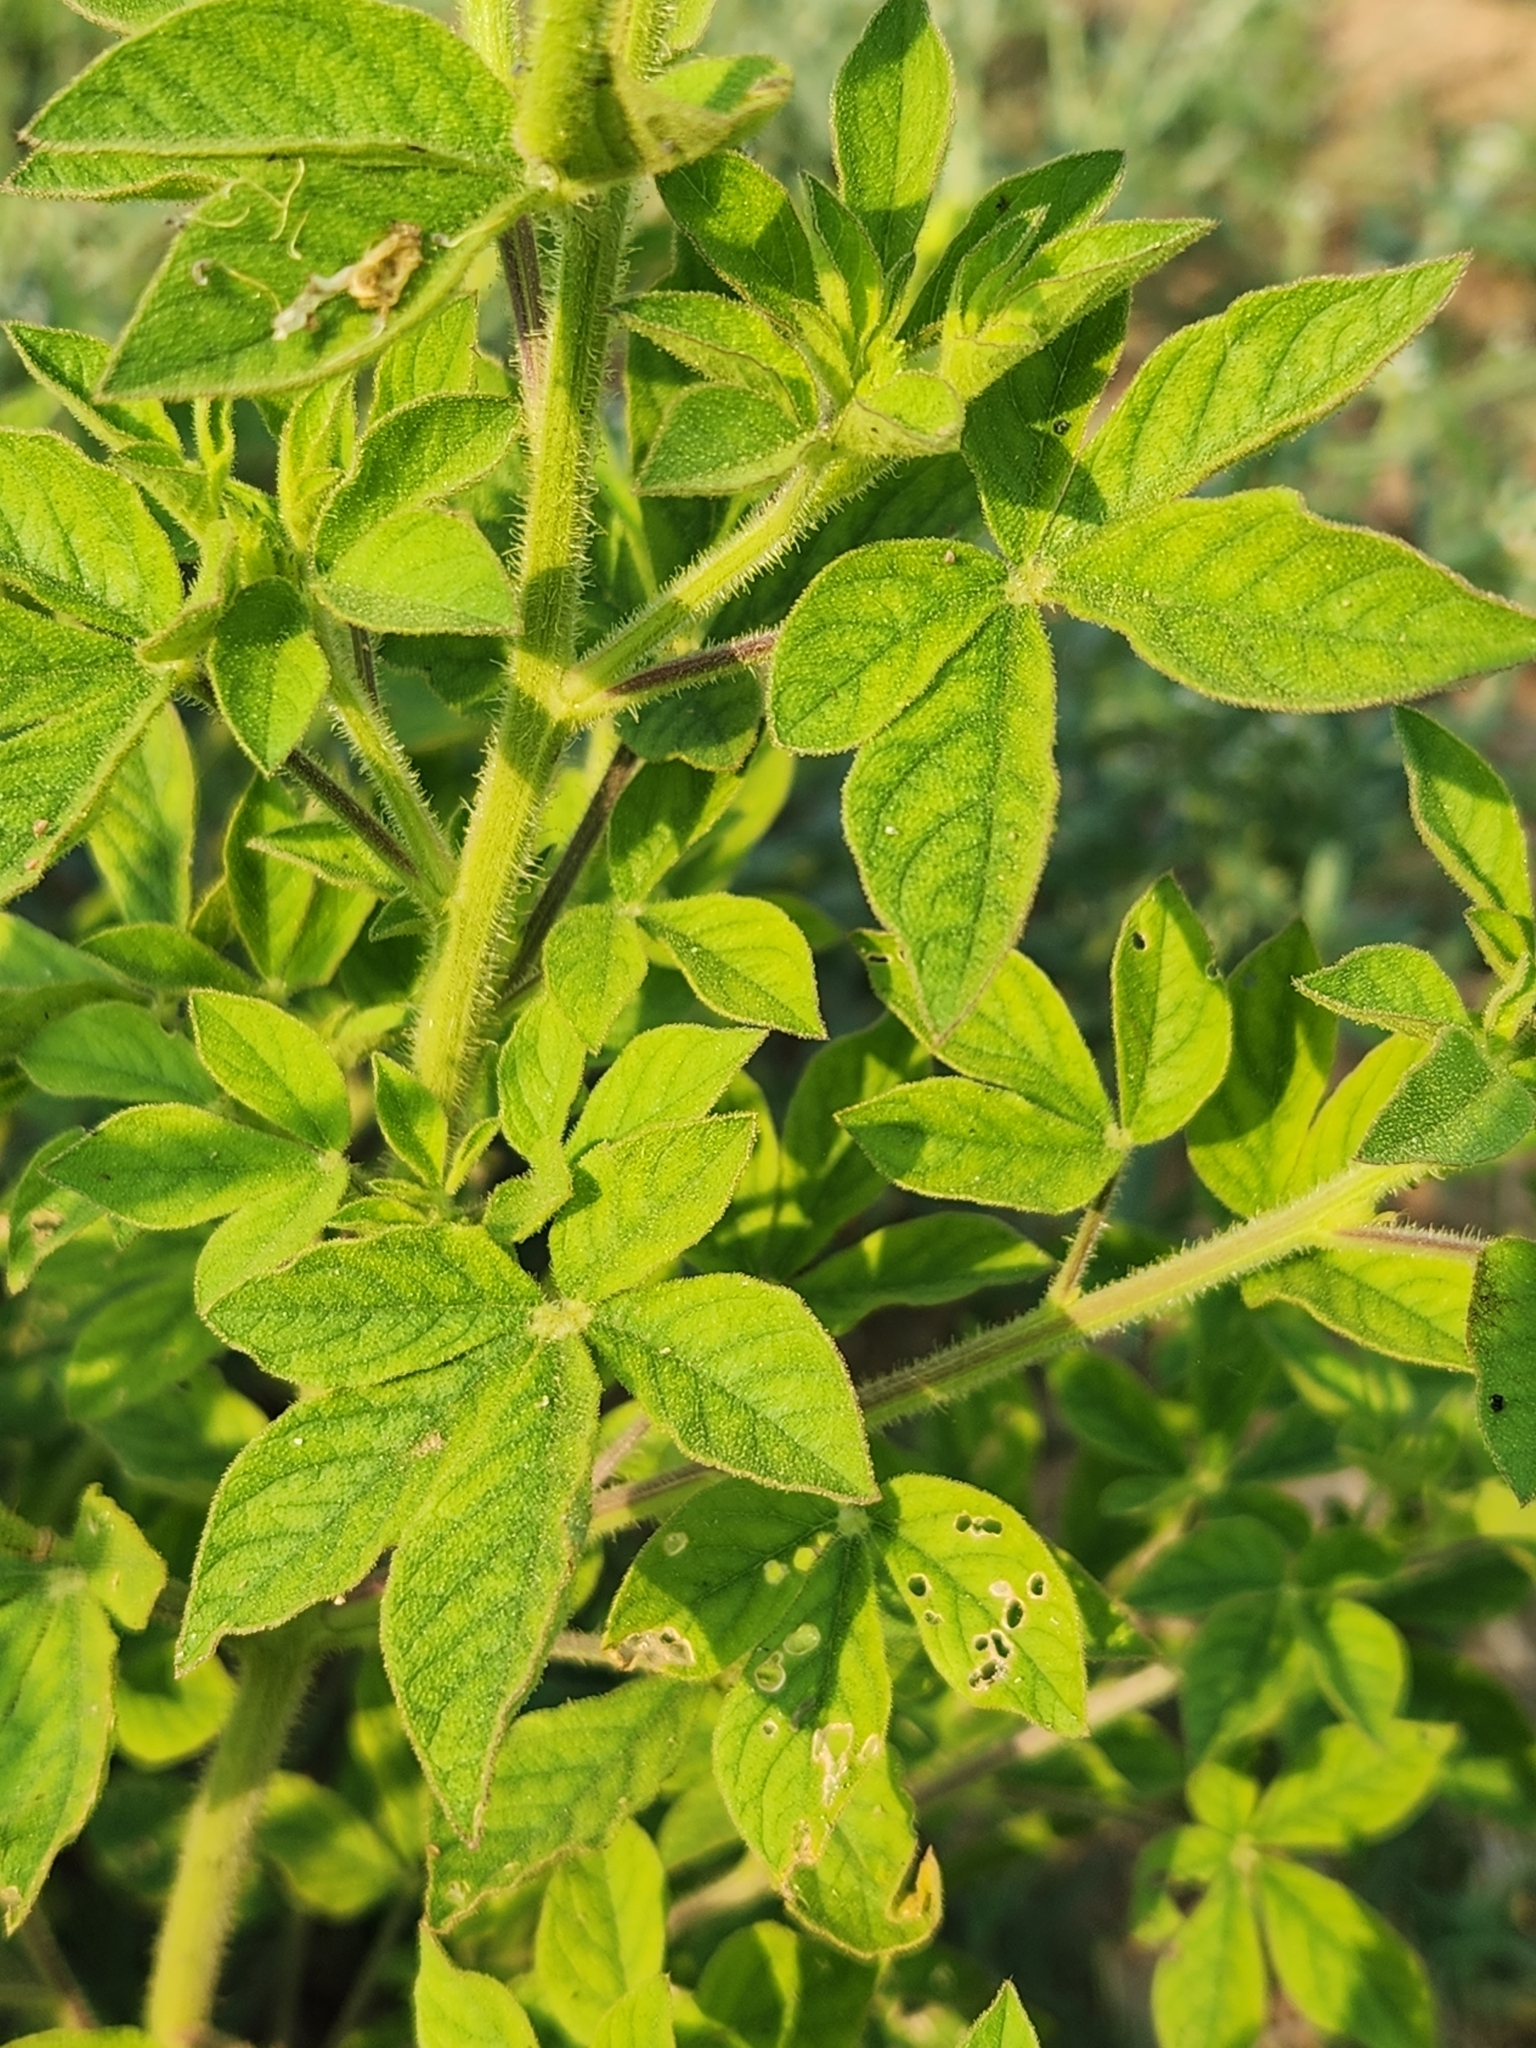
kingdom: Plantae
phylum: Tracheophyta
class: Magnoliopsida
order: Brassicales
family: Cleomaceae
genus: Arivela
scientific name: Arivela viscosa
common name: Asian spiderflower
